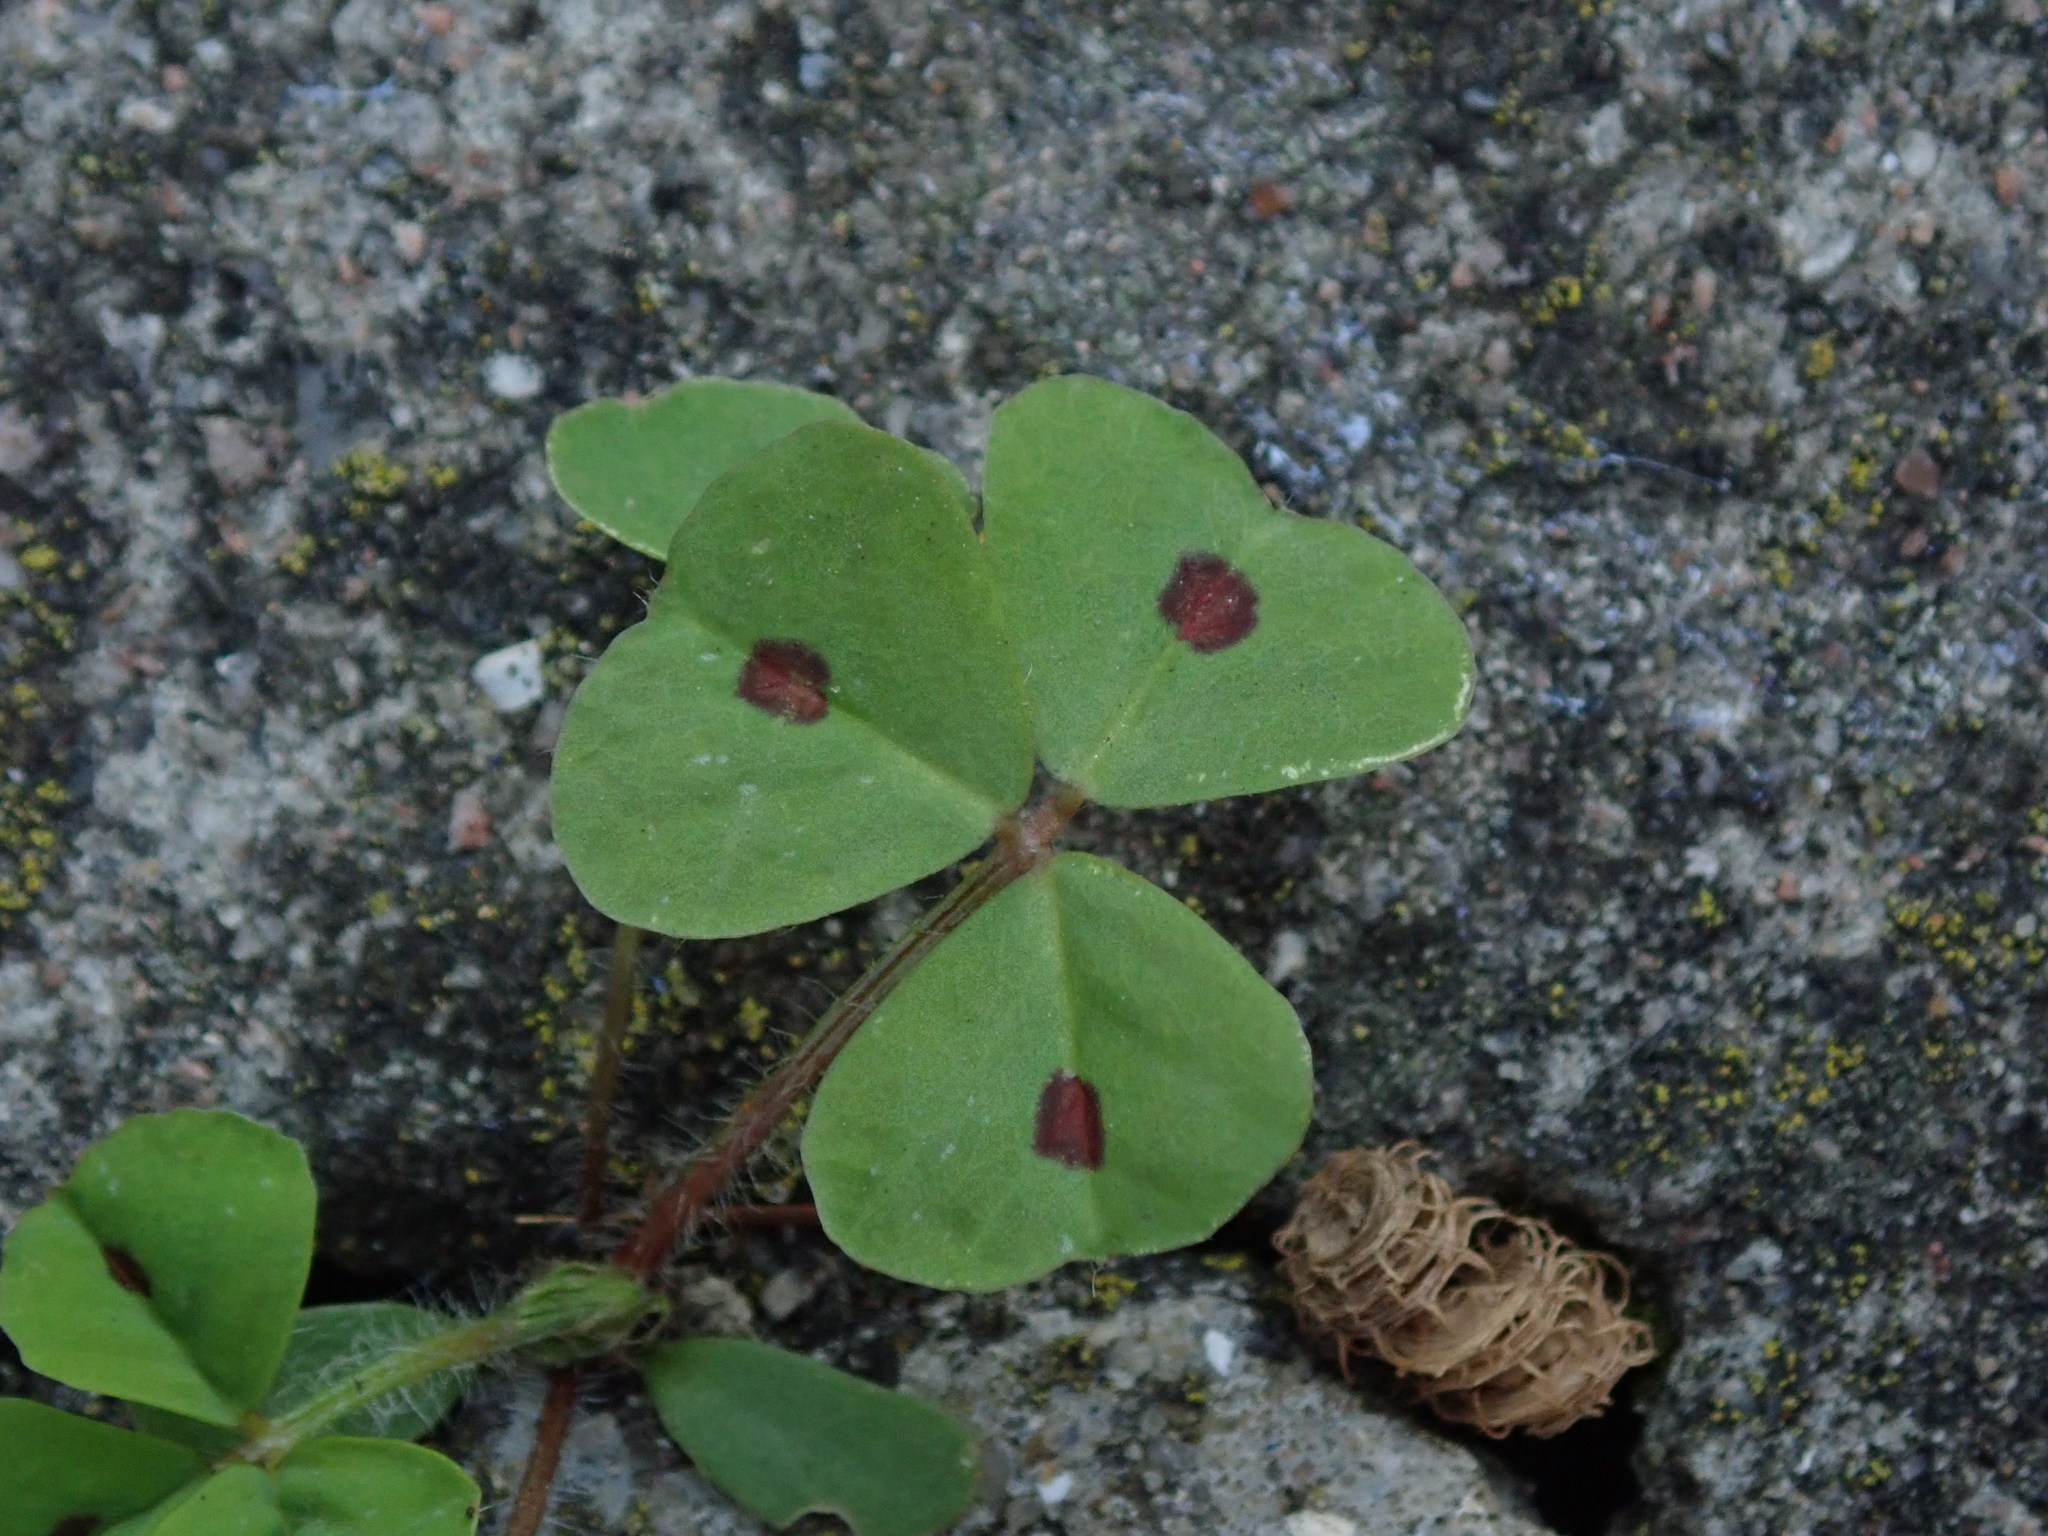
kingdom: Plantae
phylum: Tracheophyta
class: Magnoliopsida
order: Fabales
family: Fabaceae
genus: Medicago
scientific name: Medicago arabica
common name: Spotted medick
